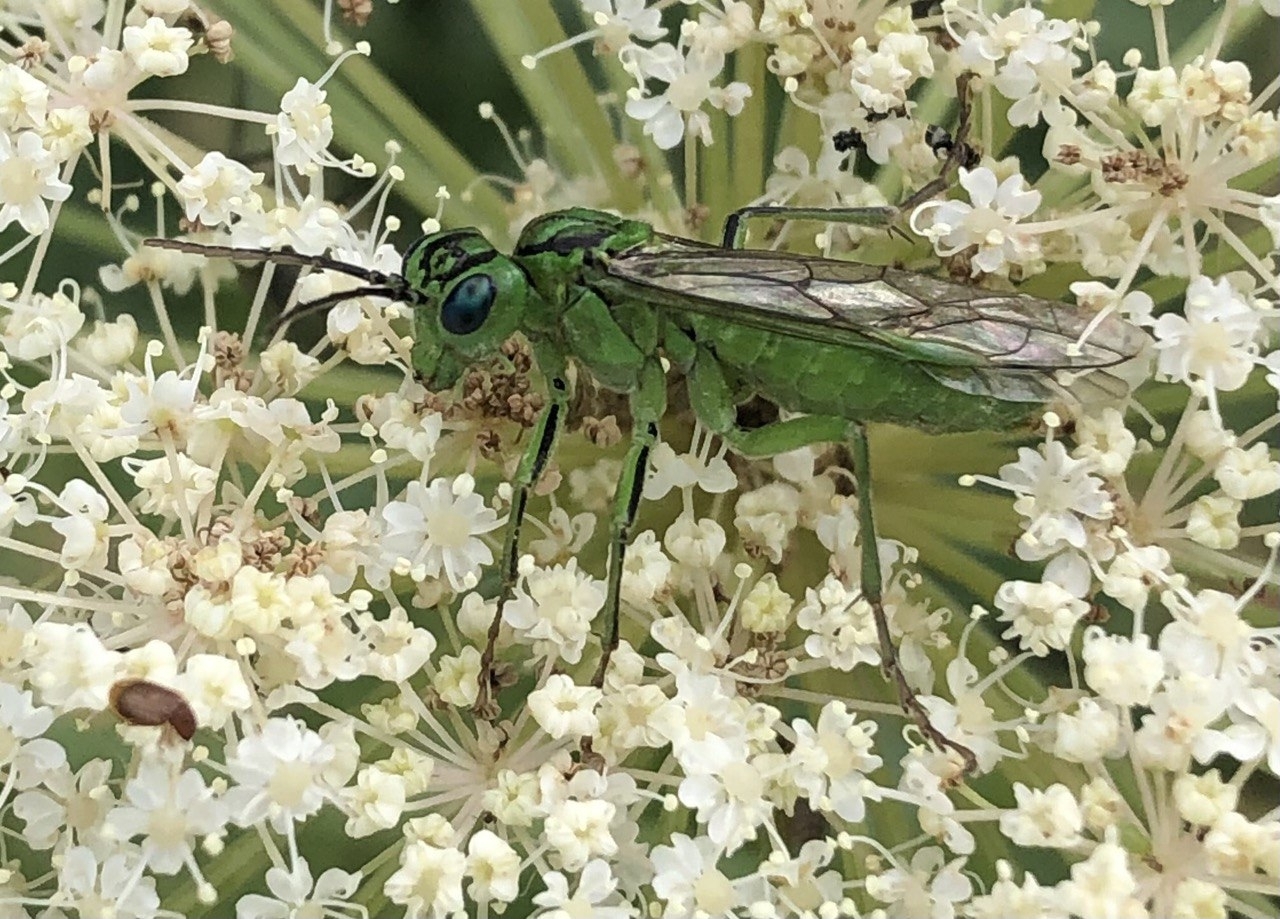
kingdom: Animalia
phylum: Arthropoda
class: Insecta
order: Hymenoptera
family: Tenthredinidae
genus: Tenthredo
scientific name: Tenthredo olivacea
